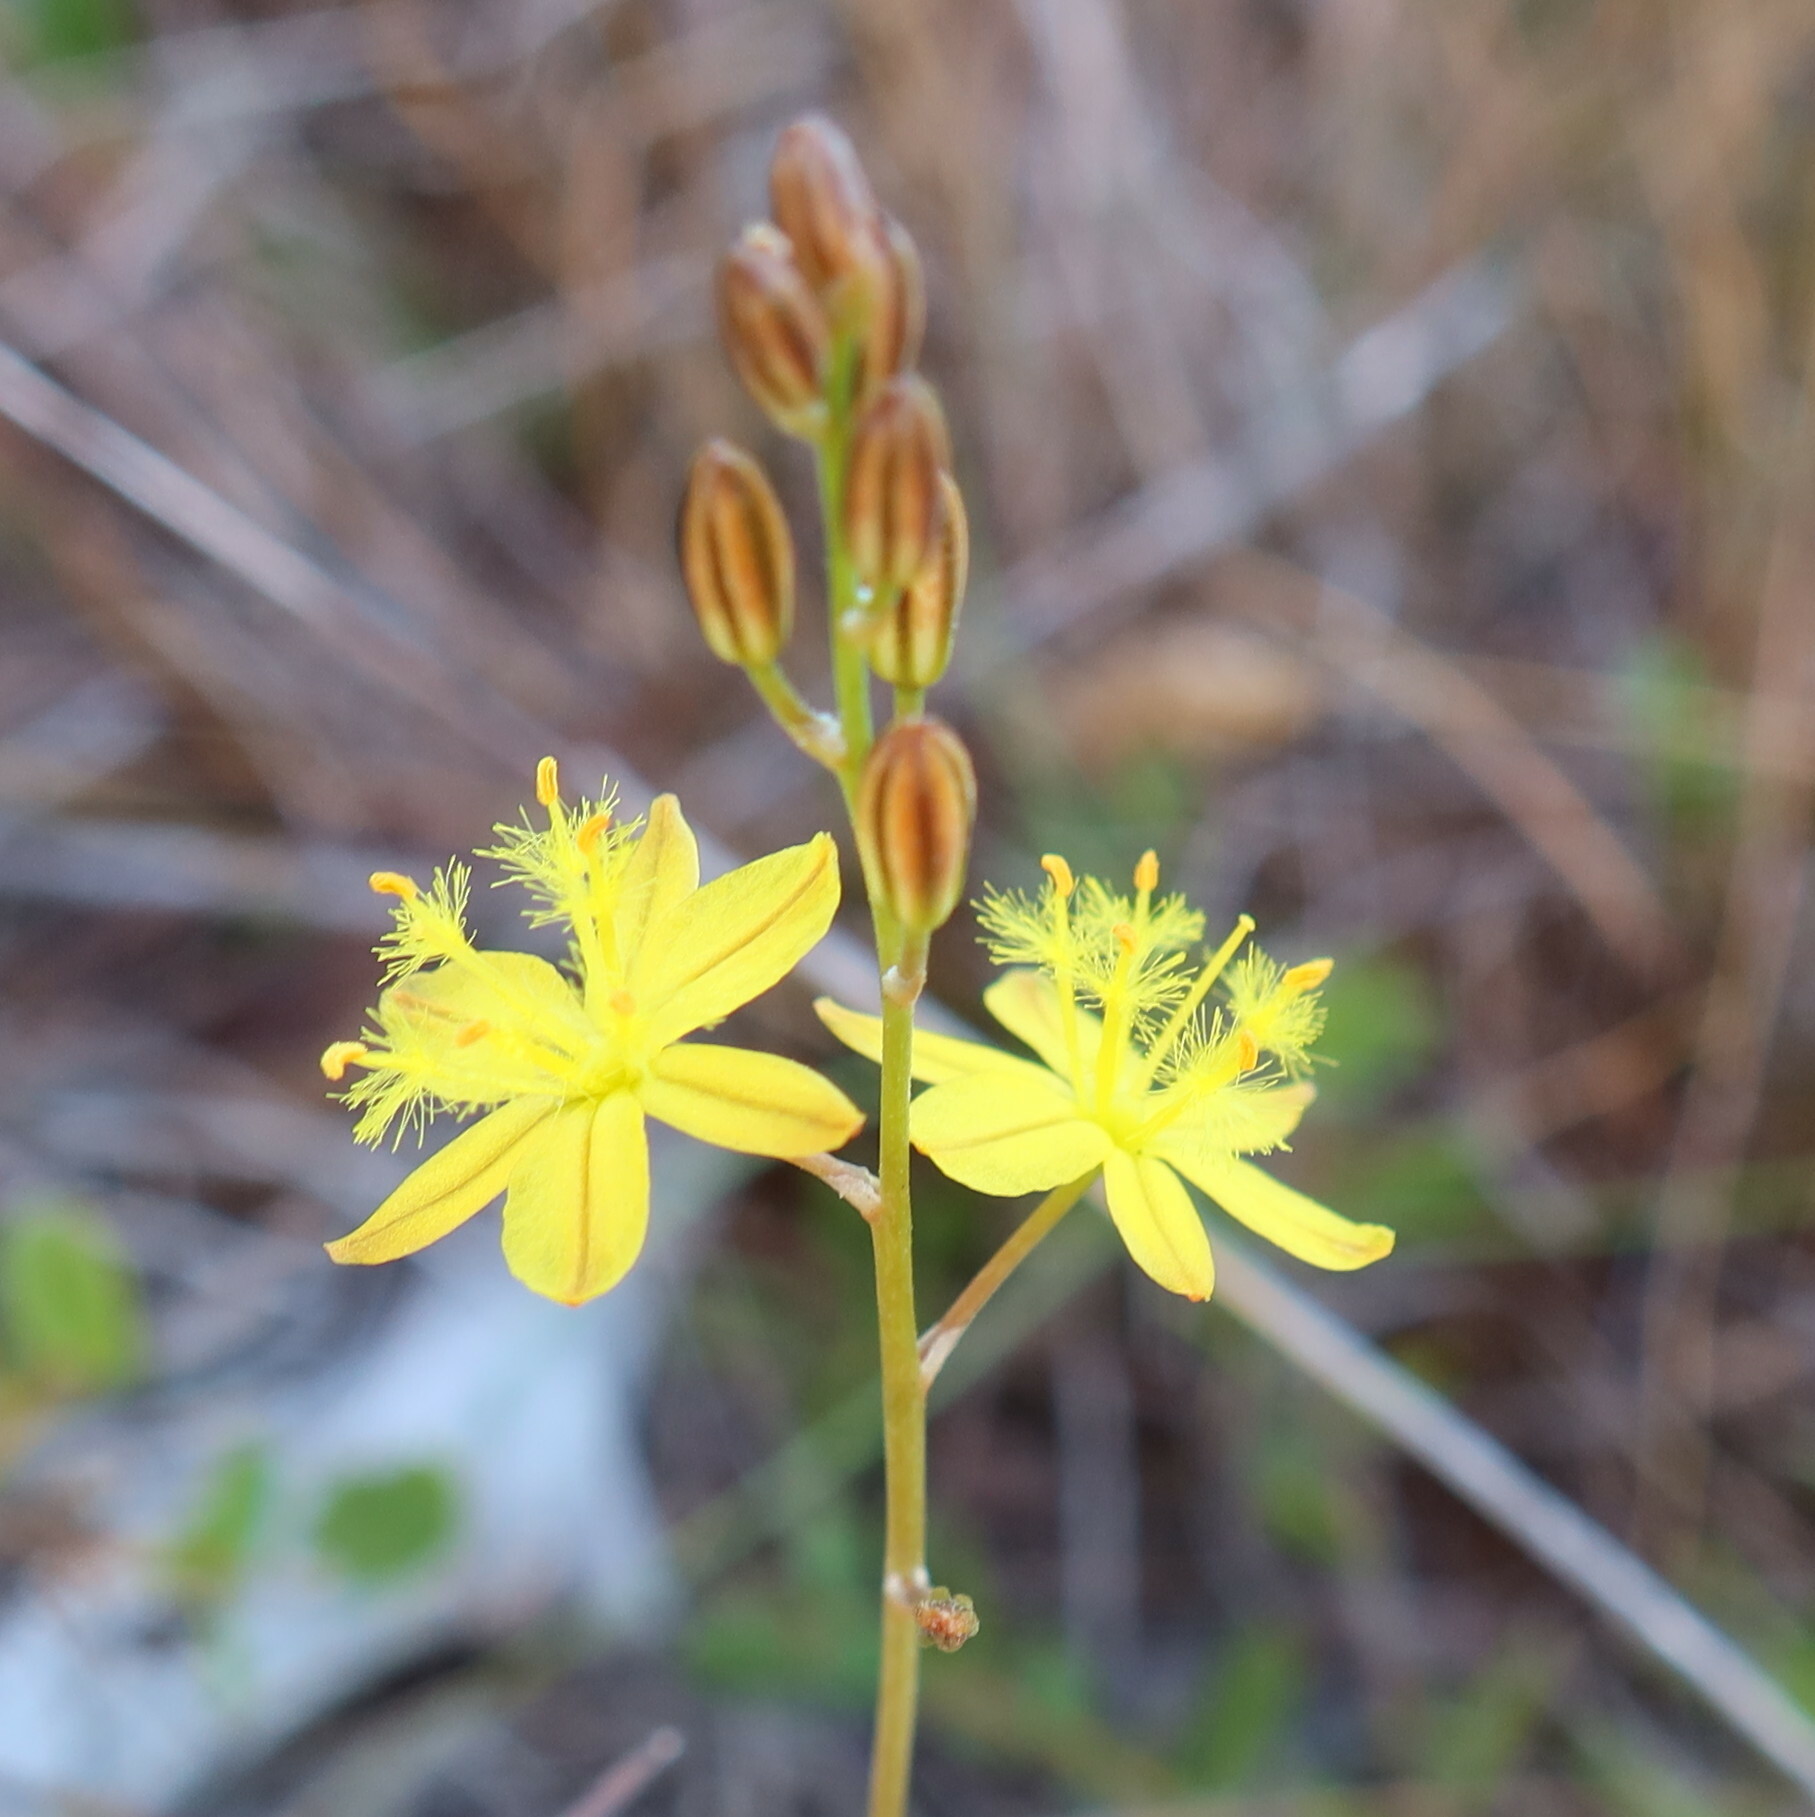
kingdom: Plantae
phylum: Tracheophyta
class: Liliopsida
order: Asparagales
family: Asphodelaceae
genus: Bulbine
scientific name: Bulbine favosa
